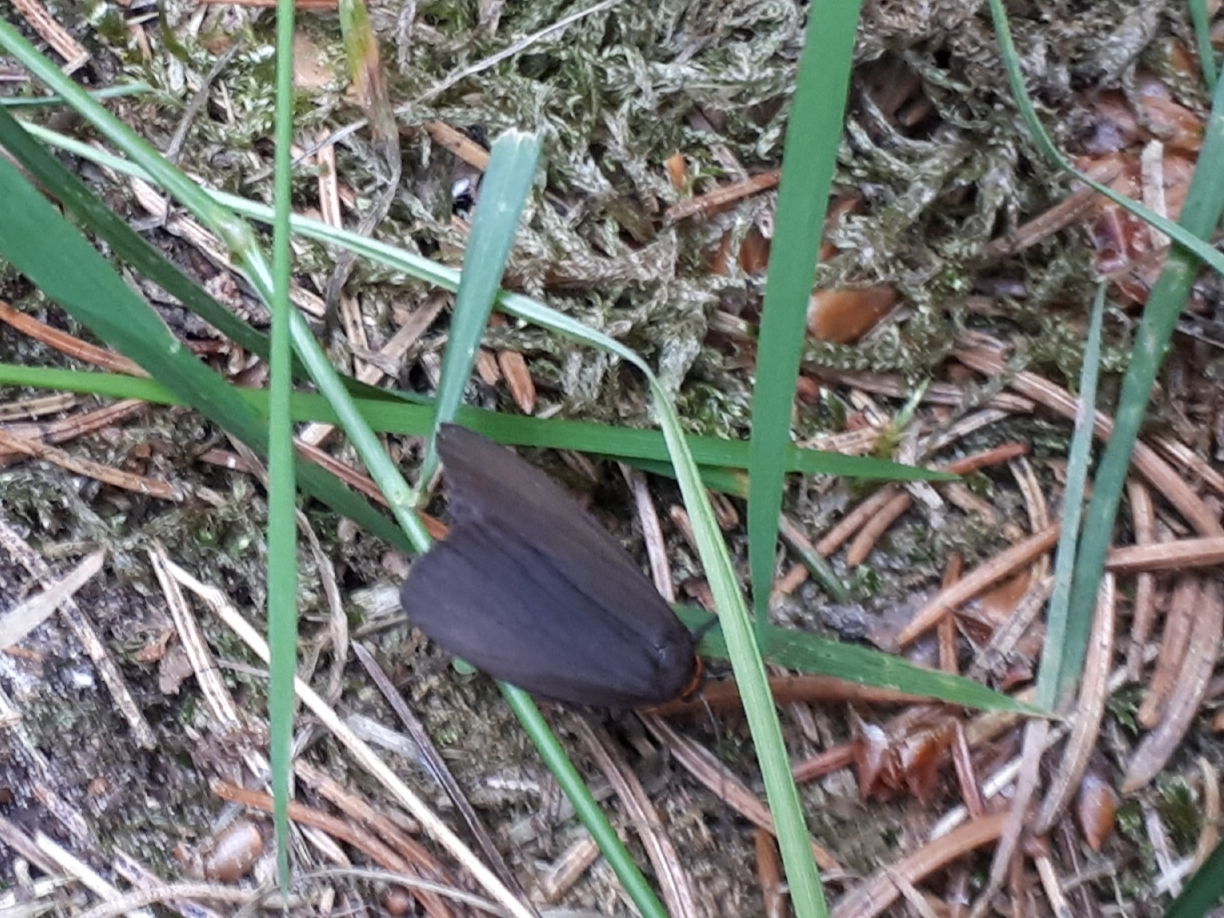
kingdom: Animalia
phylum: Arthropoda
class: Insecta
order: Lepidoptera
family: Erebidae
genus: Atolmis
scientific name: Atolmis rubricollis
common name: Red-necked footman
